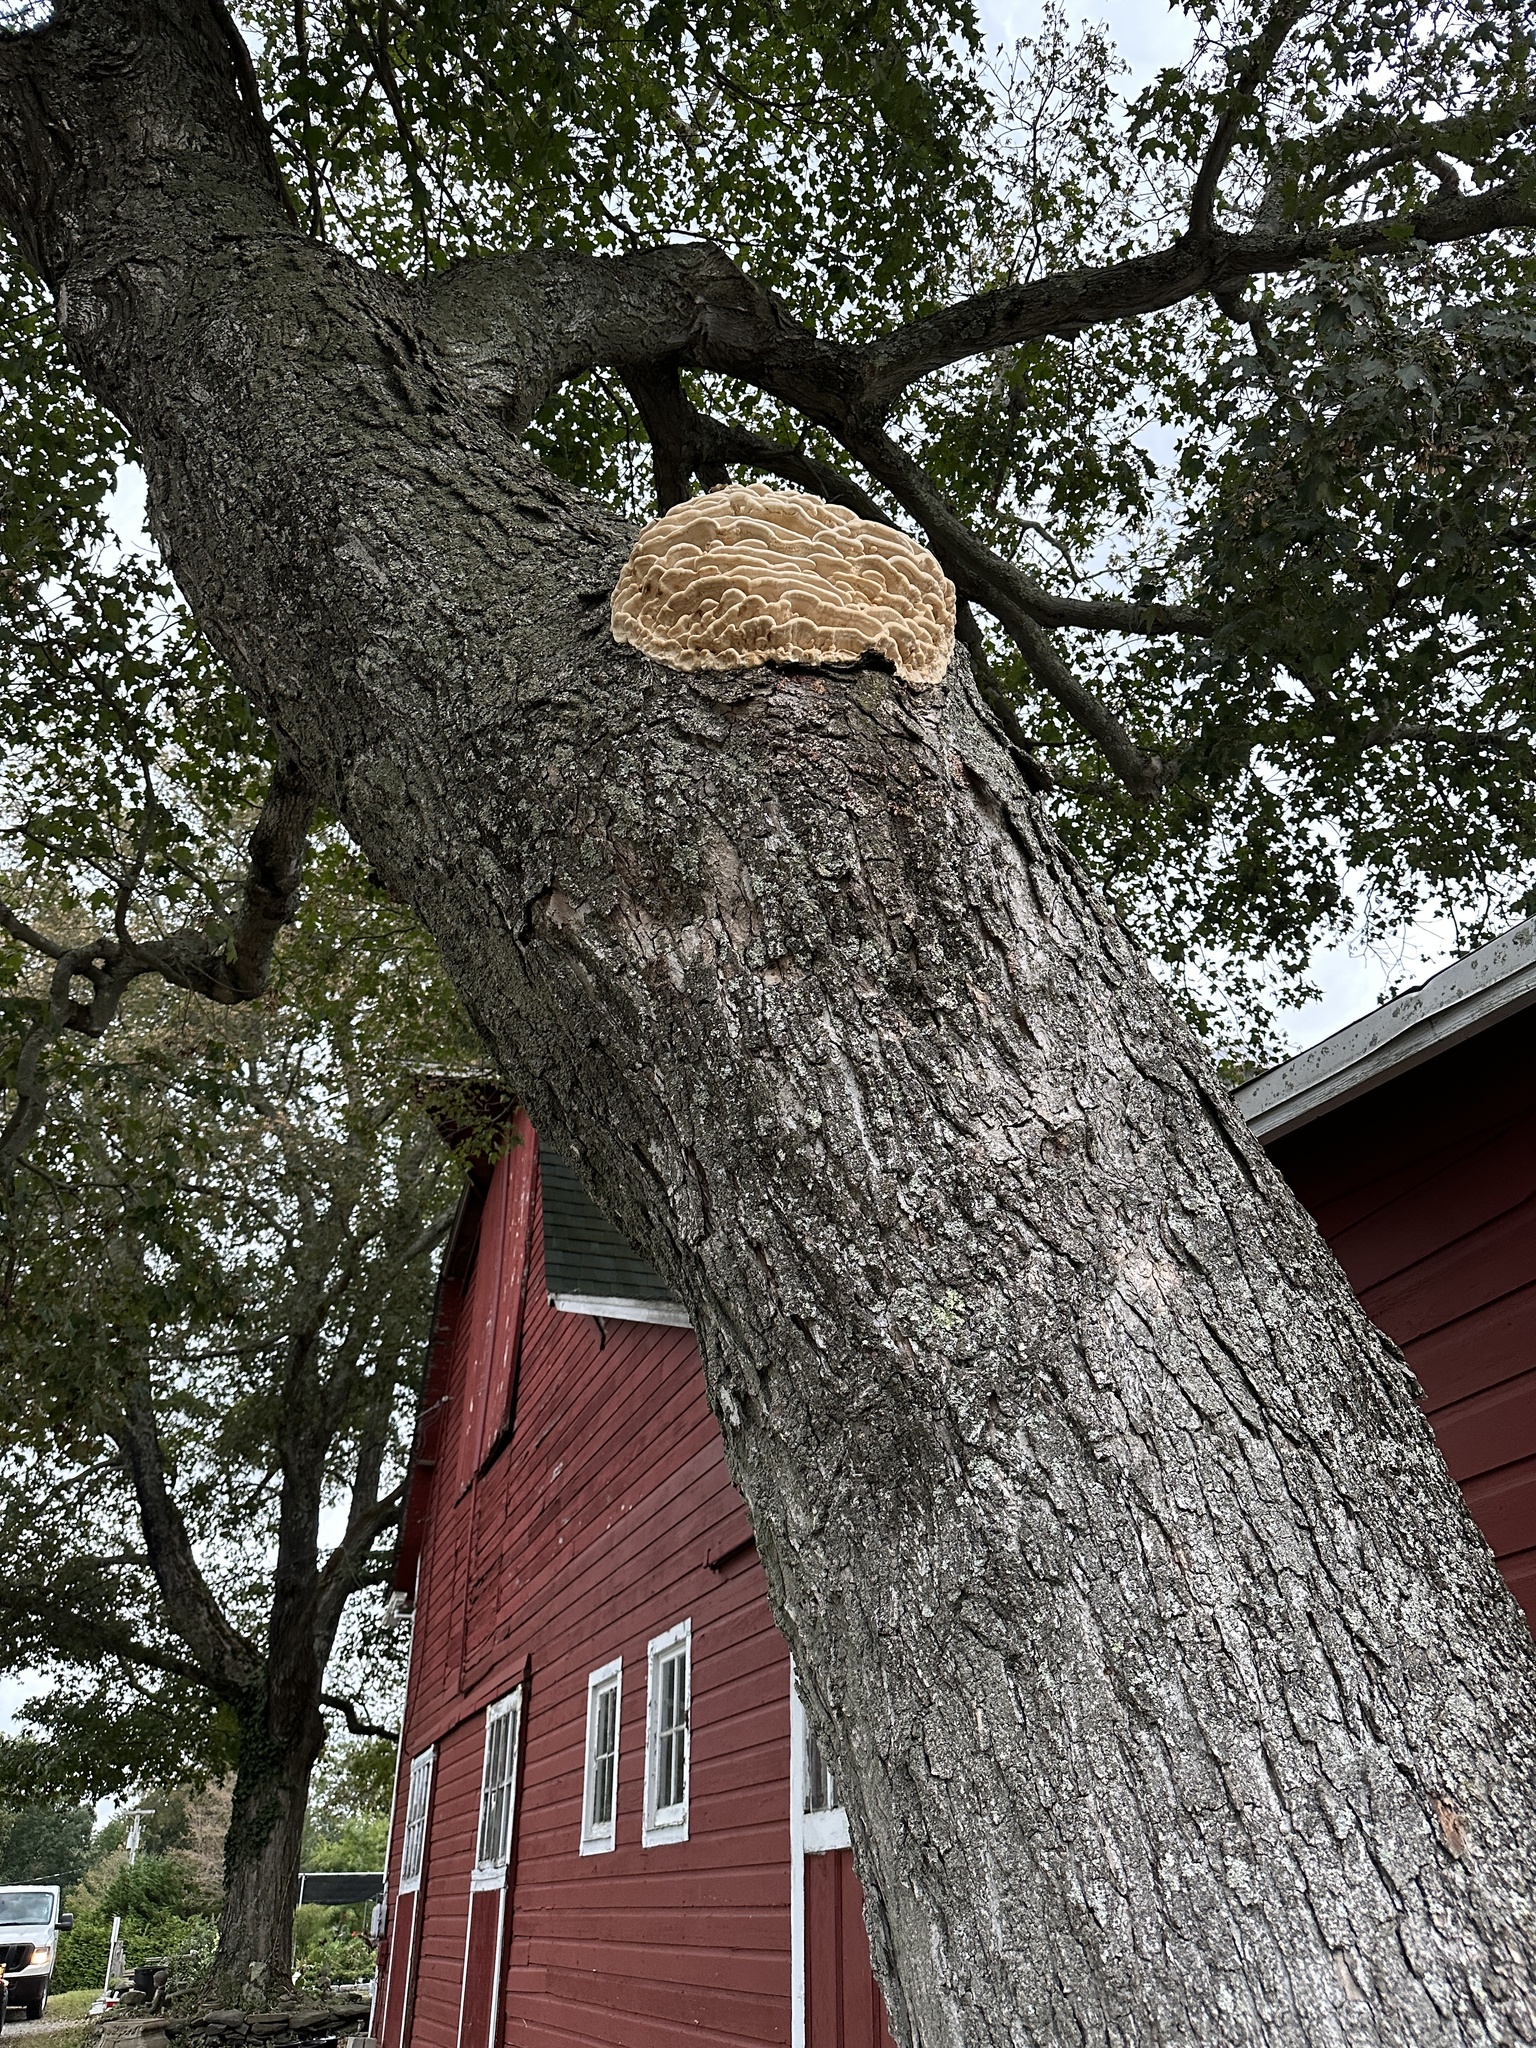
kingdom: Fungi
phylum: Basidiomycota
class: Agaricomycetes
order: Polyporales
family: Meruliaceae
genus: Climacodon
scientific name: Climacodon septentrionalis
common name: Northern tooth
